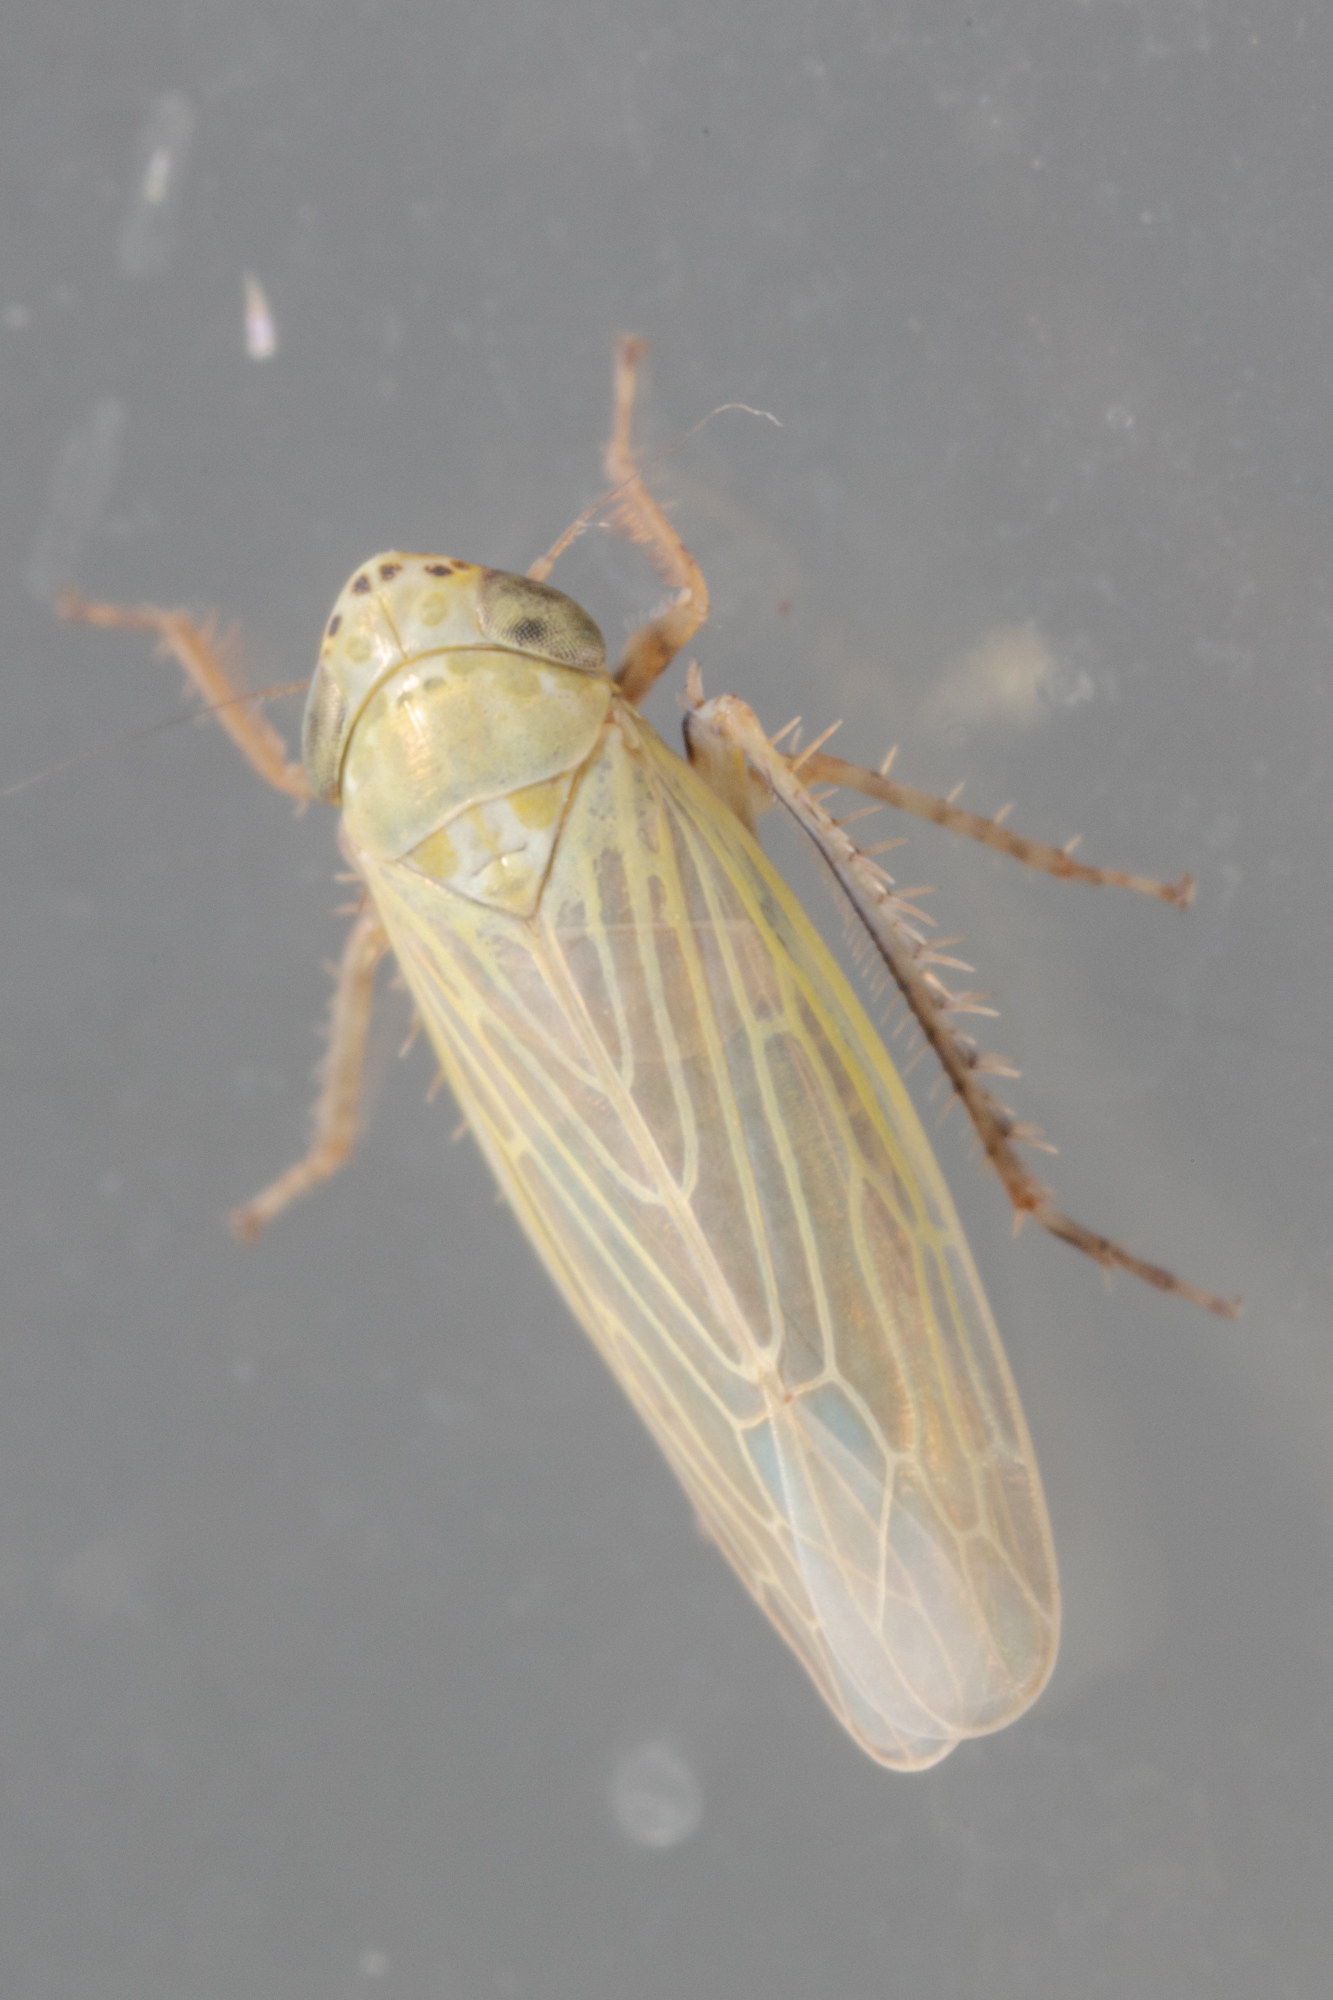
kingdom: Animalia
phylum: Arthropoda
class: Insecta
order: Hemiptera
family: Cicadellidae
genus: Graminella
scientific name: Graminella nigrifrons
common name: Blackfaced leafhopper
